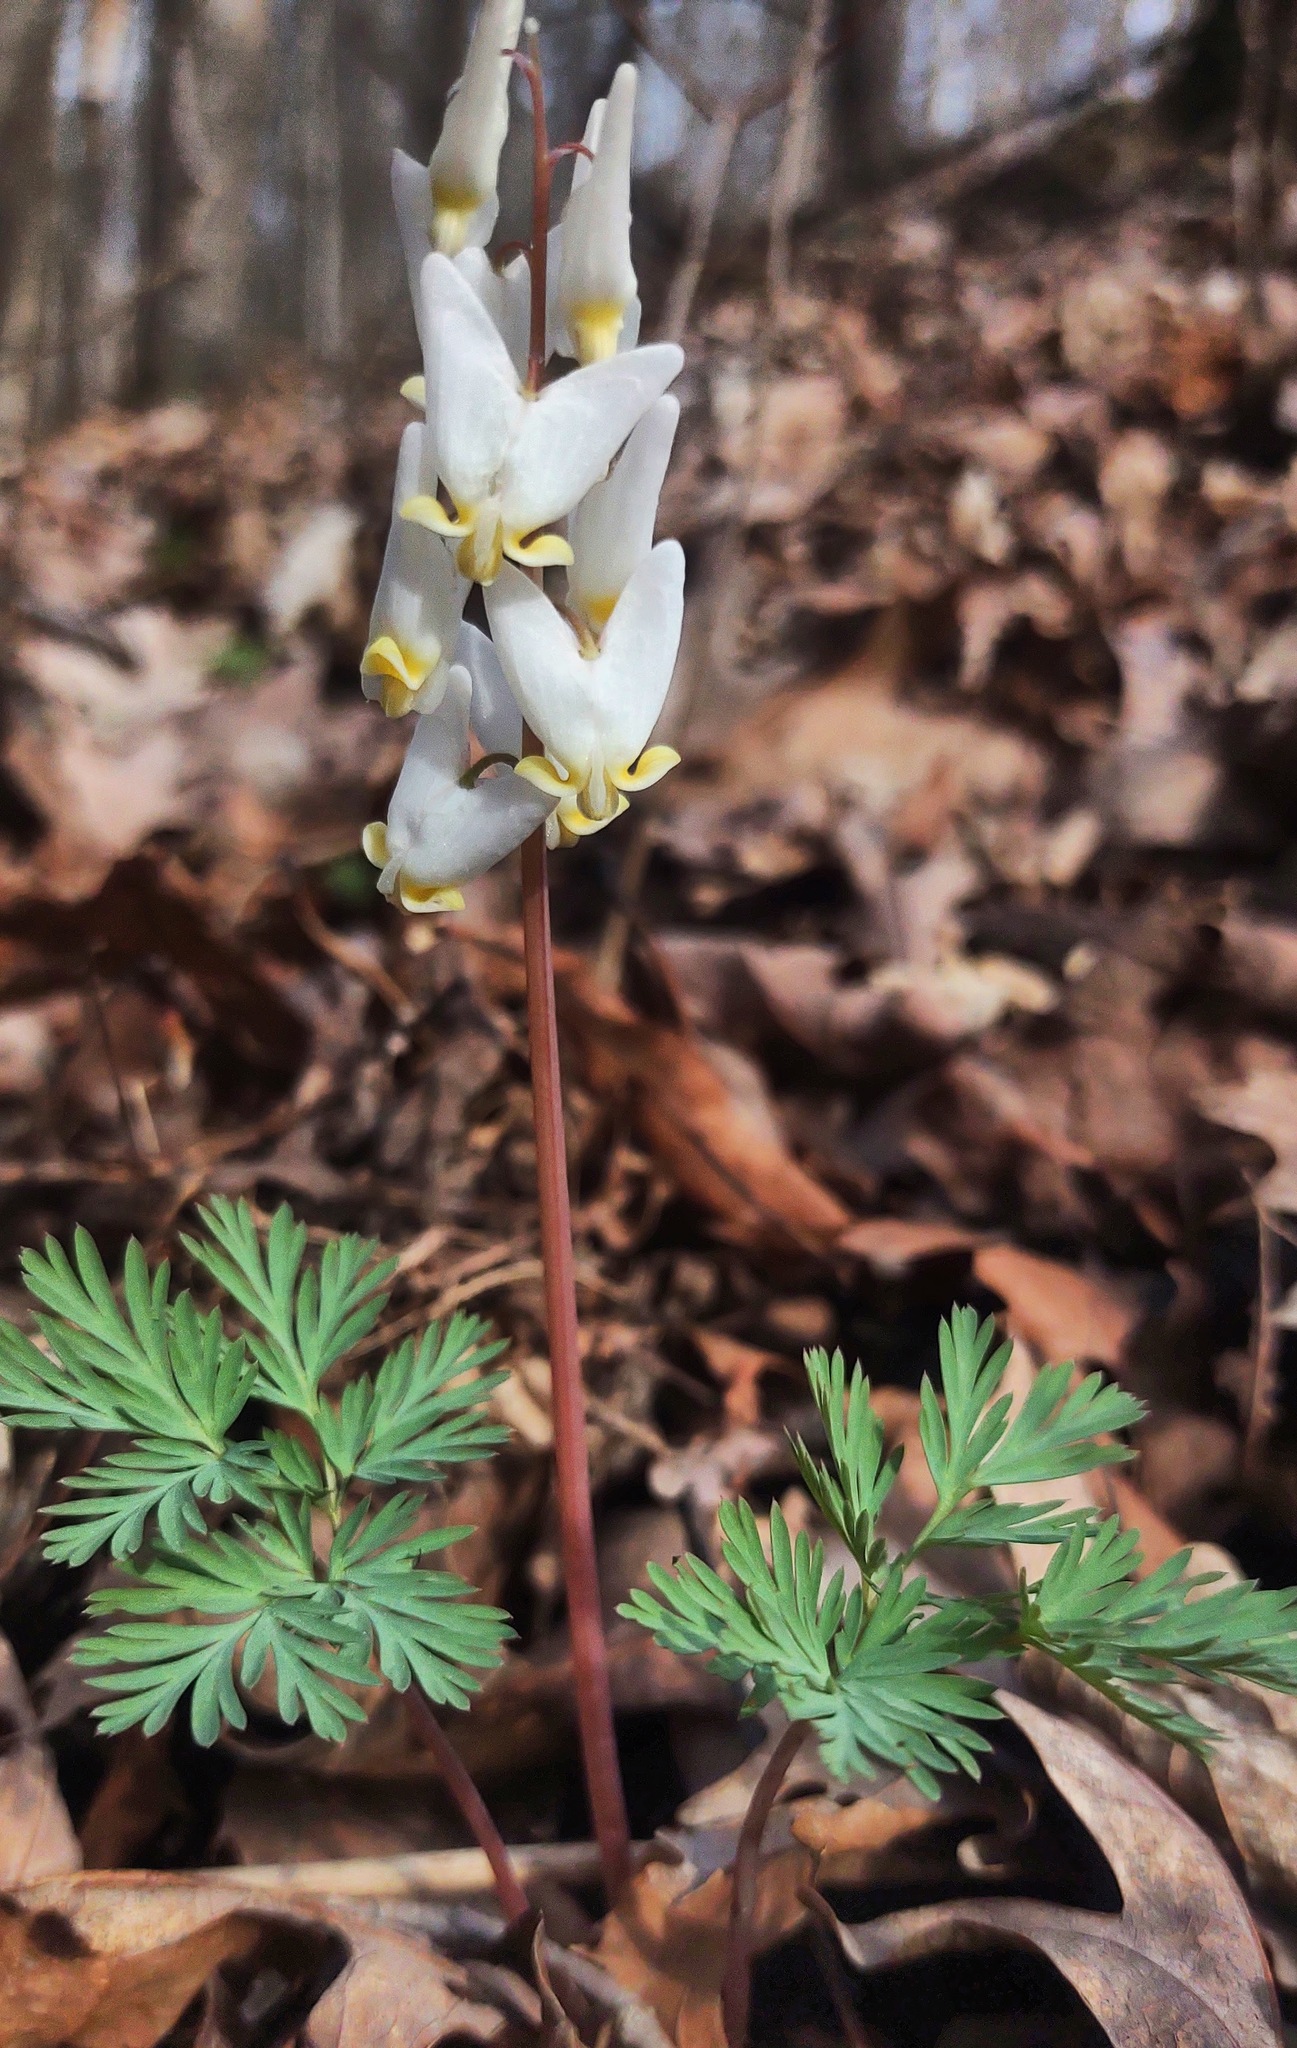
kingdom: Plantae
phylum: Tracheophyta
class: Magnoliopsida
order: Ranunculales
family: Papaveraceae
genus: Dicentra
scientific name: Dicentra cucullaria
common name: Dutchman's breeches
